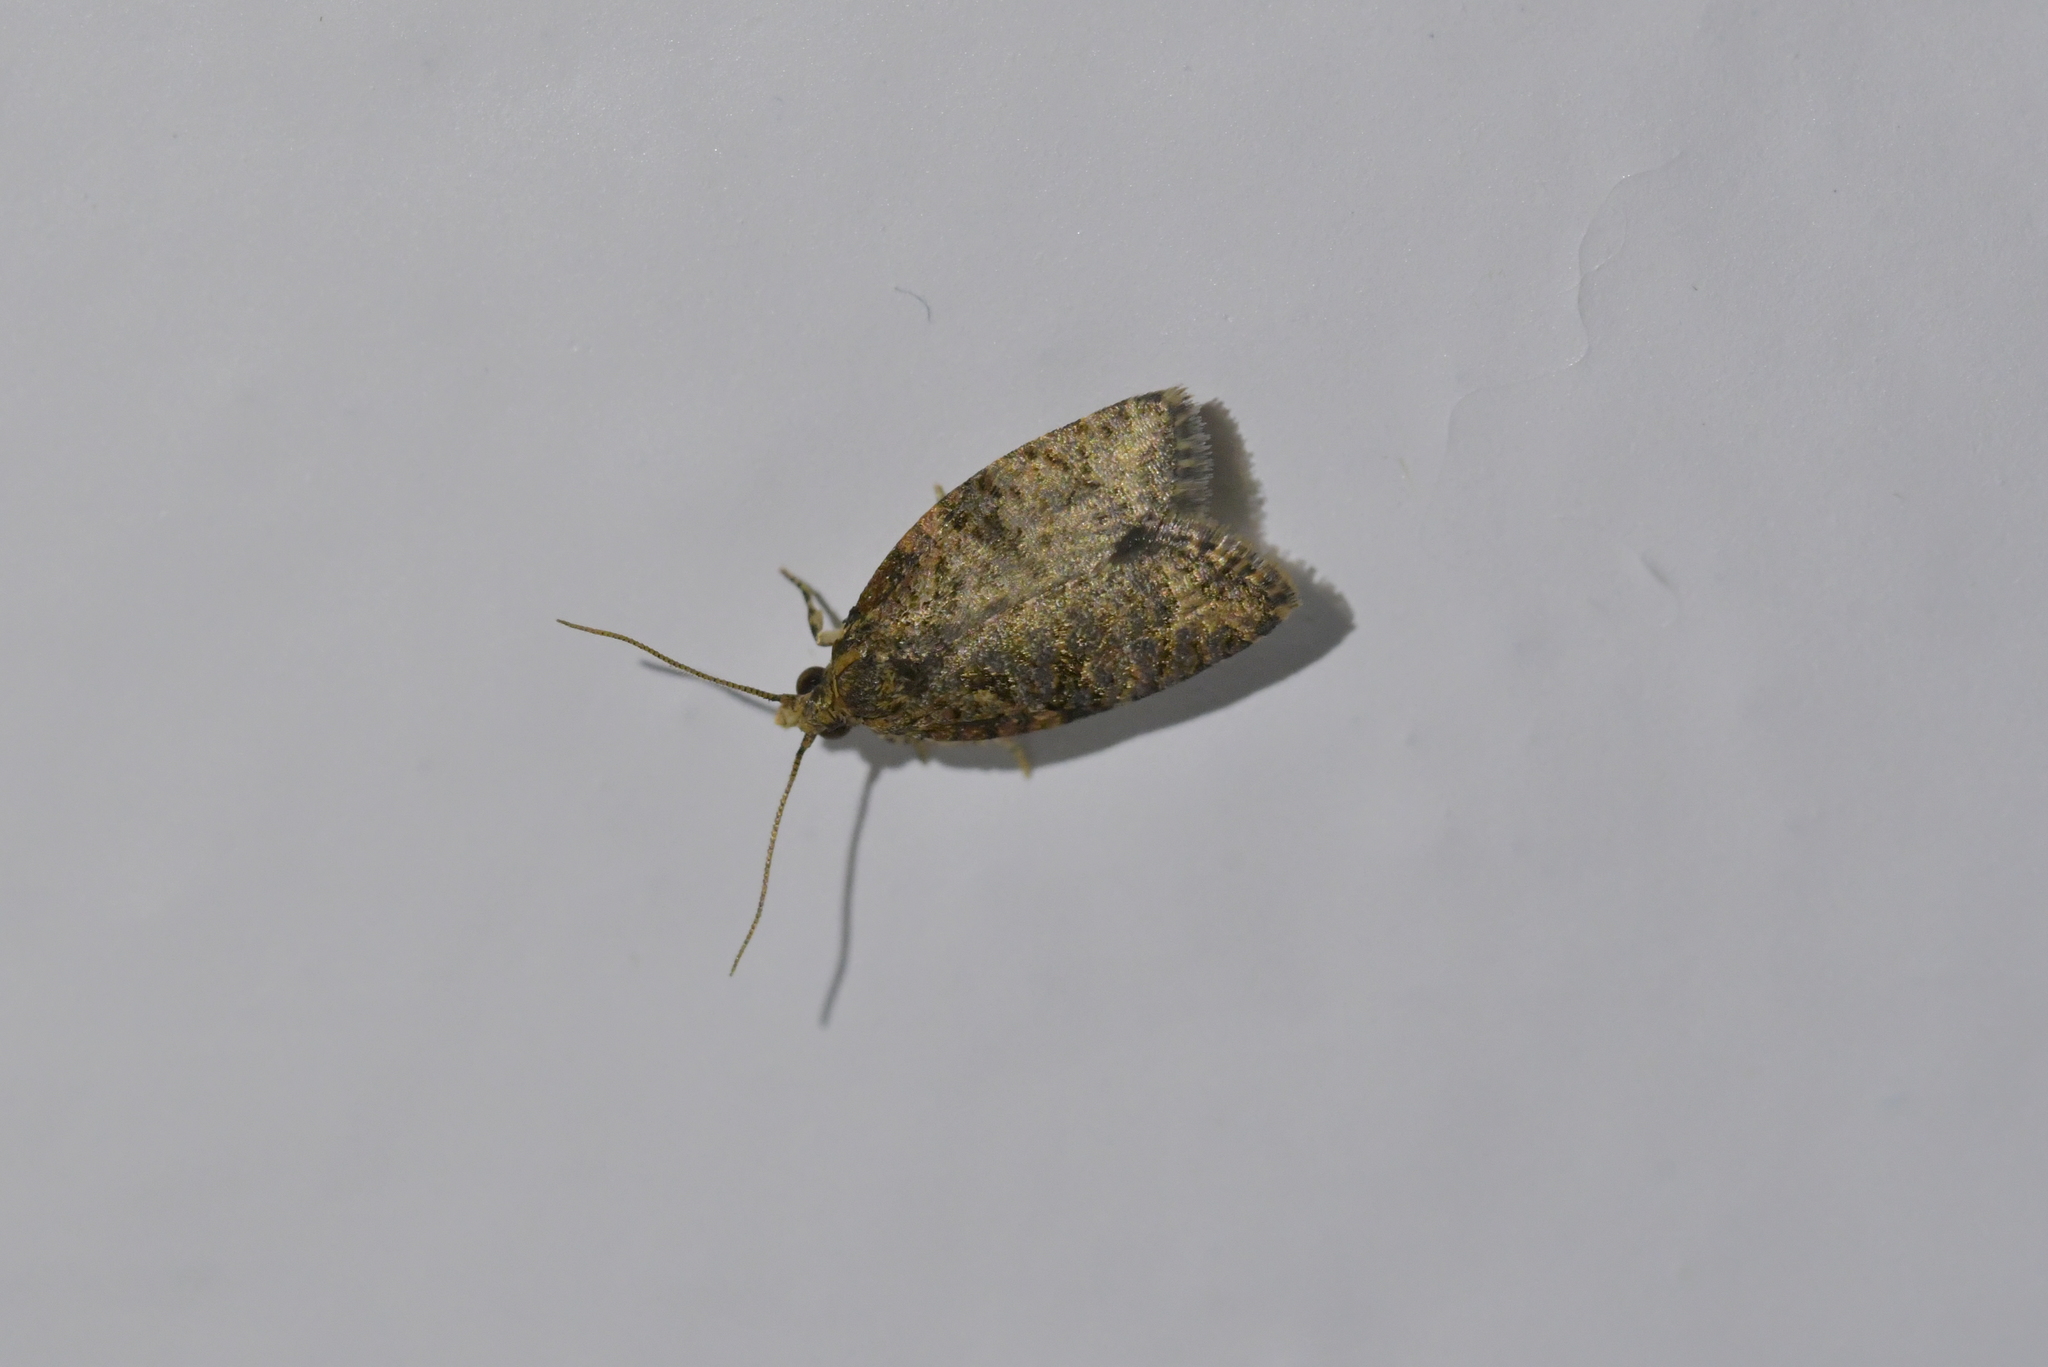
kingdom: Animalia
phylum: Arthropoda
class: Insecta
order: Lepidoptera
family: Tortricidae
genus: Capua
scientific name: Capua intractana
